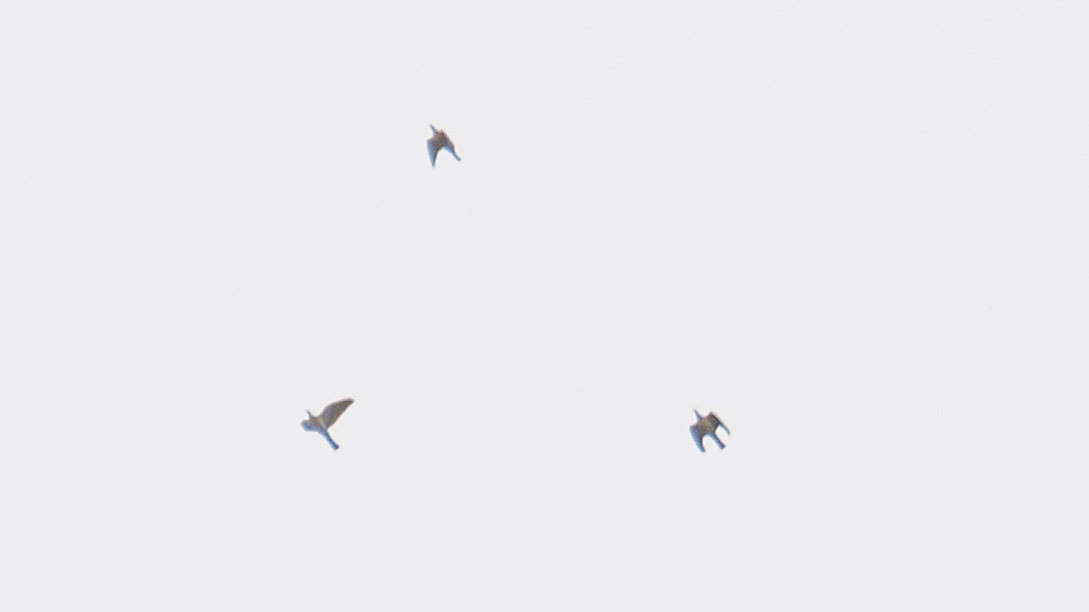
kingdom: Animalia
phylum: Chordata
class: Aves
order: Columbiformes
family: Columbidae
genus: Columba
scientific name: Columba palumbus
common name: Common wood pigeon
